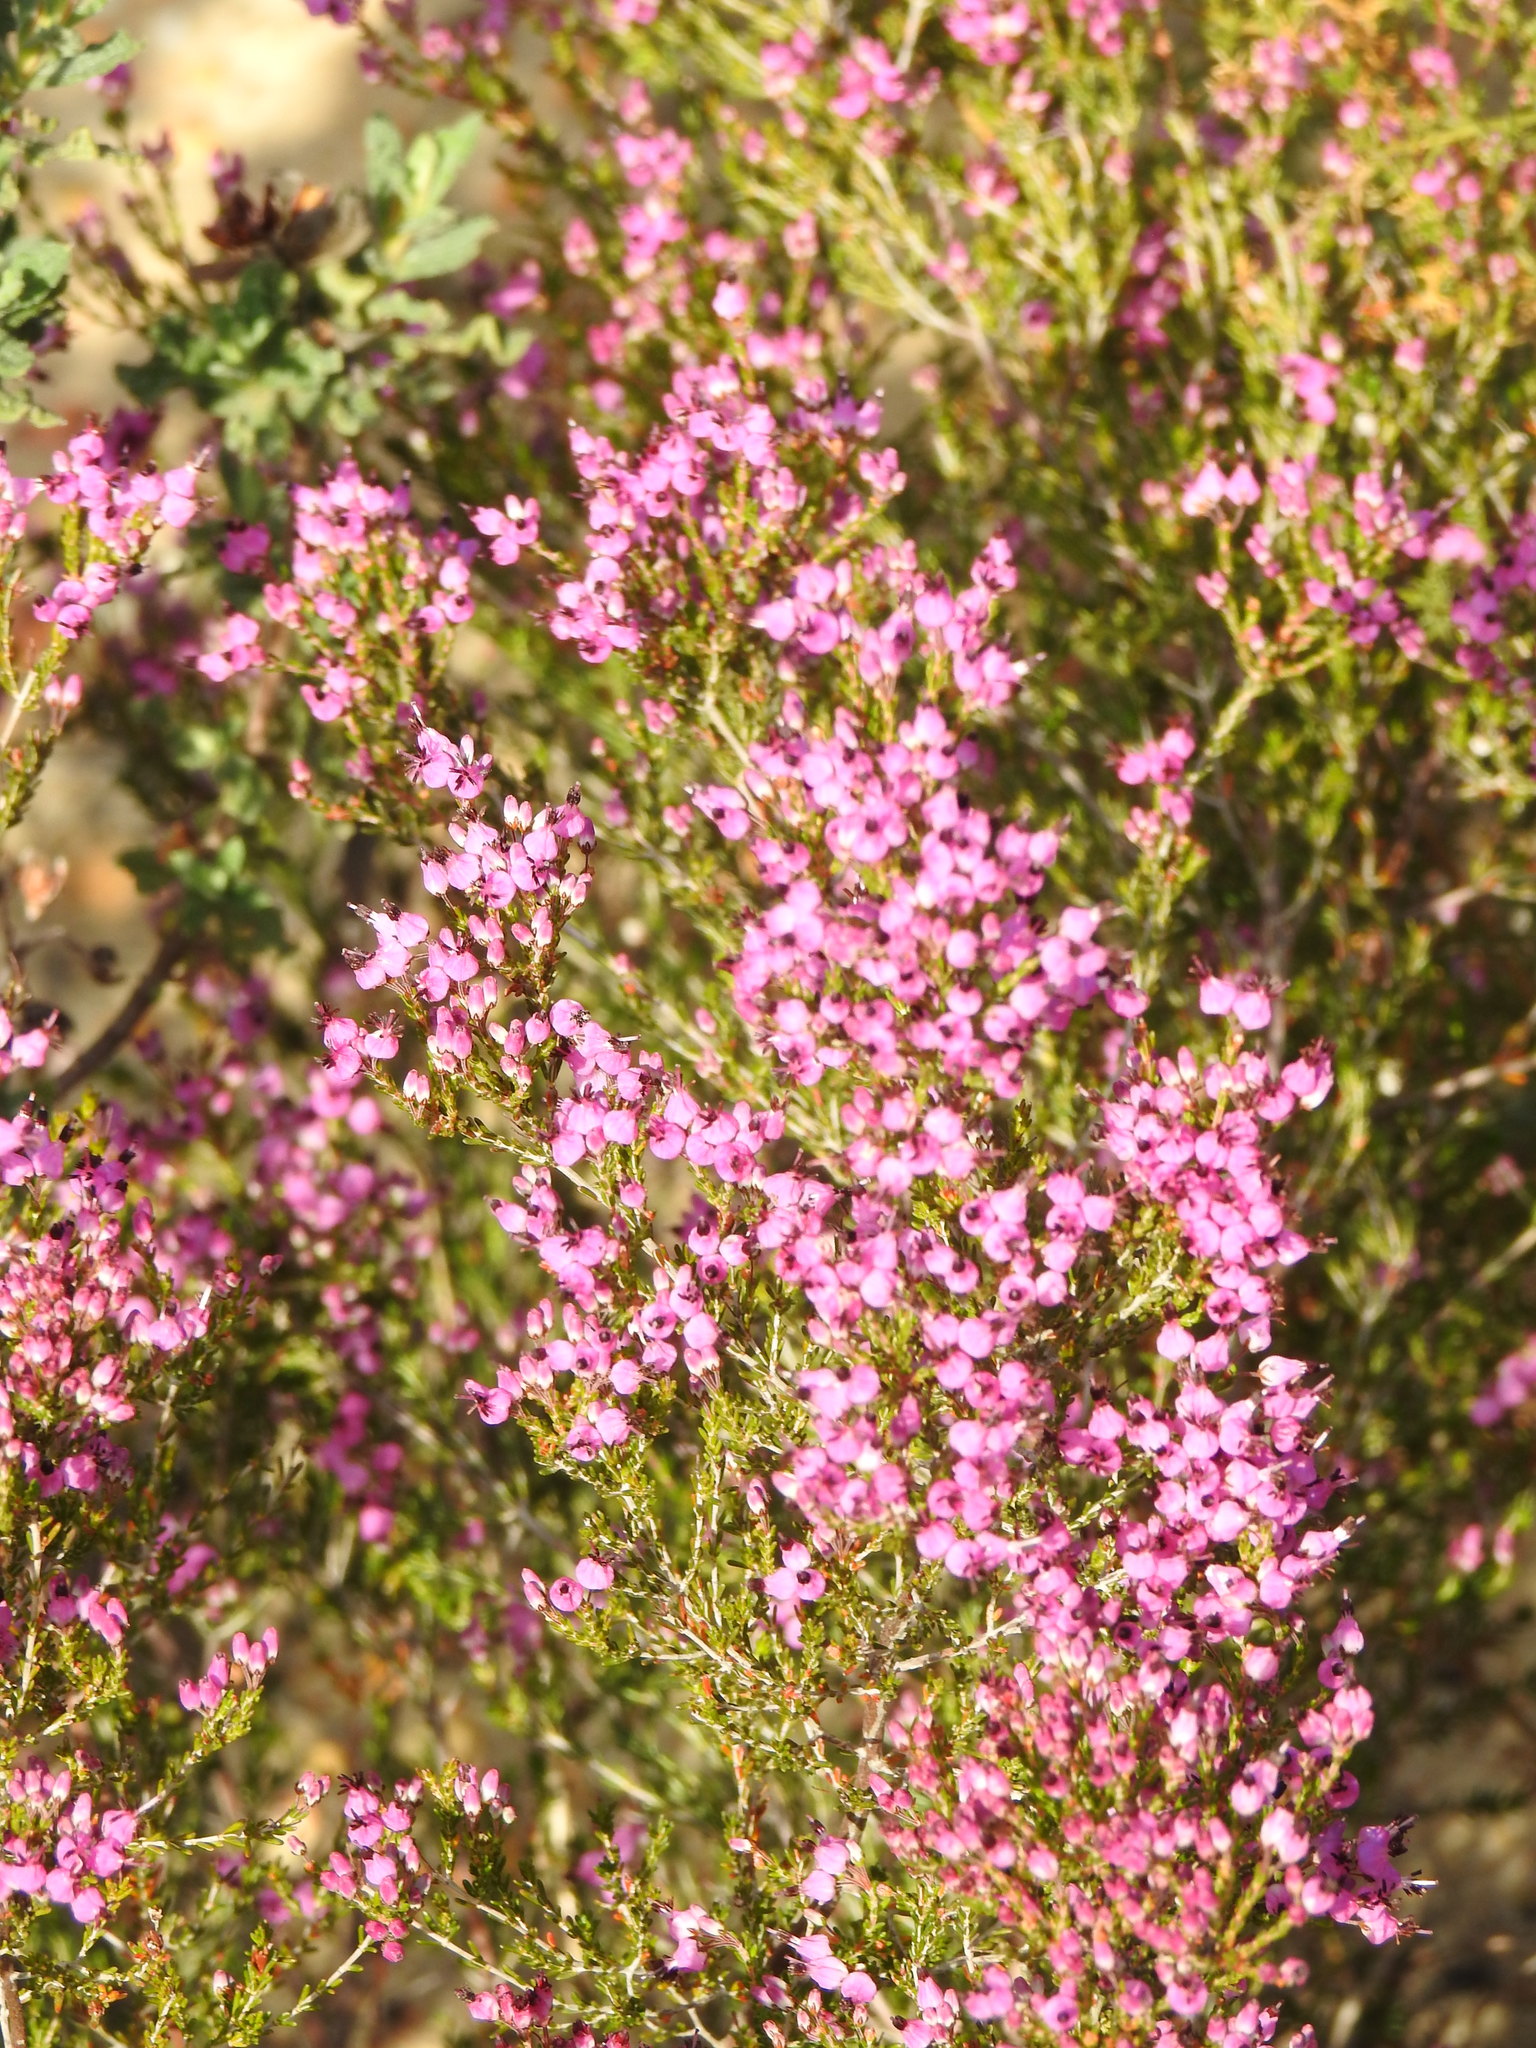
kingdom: Plantae
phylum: Tracheophyta
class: Magnoliopsida
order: Ericales
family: Ericaceae
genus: Erica
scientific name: Erica umbellata
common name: Dwarf spanish heath
